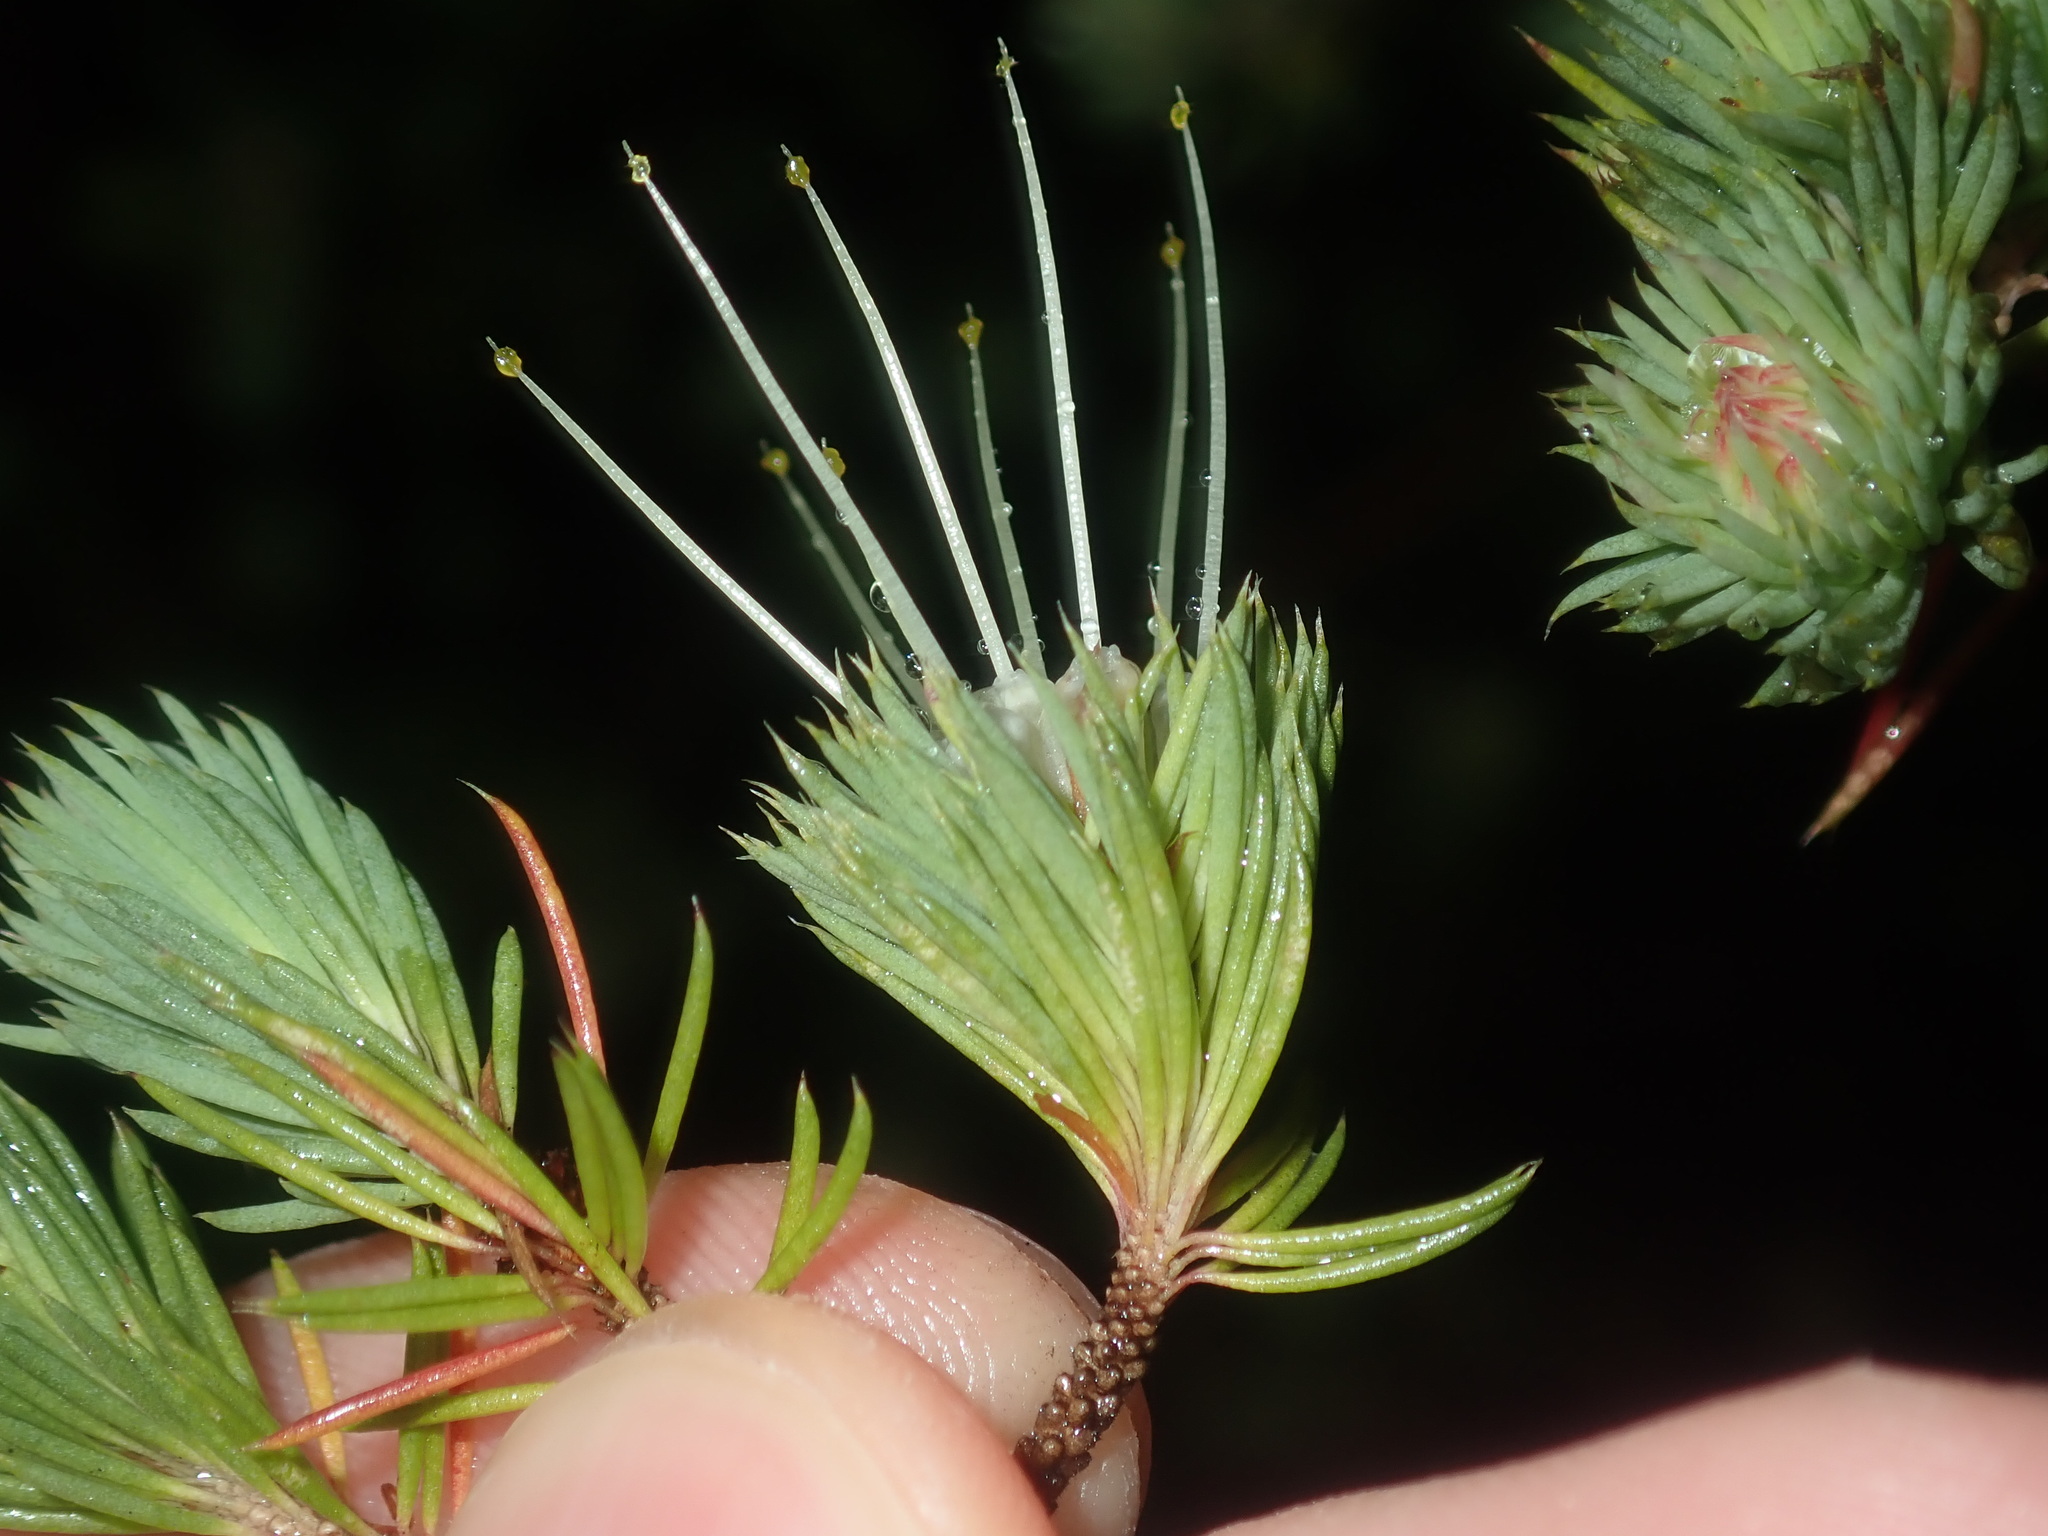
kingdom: Plantae
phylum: Tracheophyta
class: Magnoliopsida
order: Myrtales
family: Myrtaceae
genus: Darwinia
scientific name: Darwinia fascicularis
